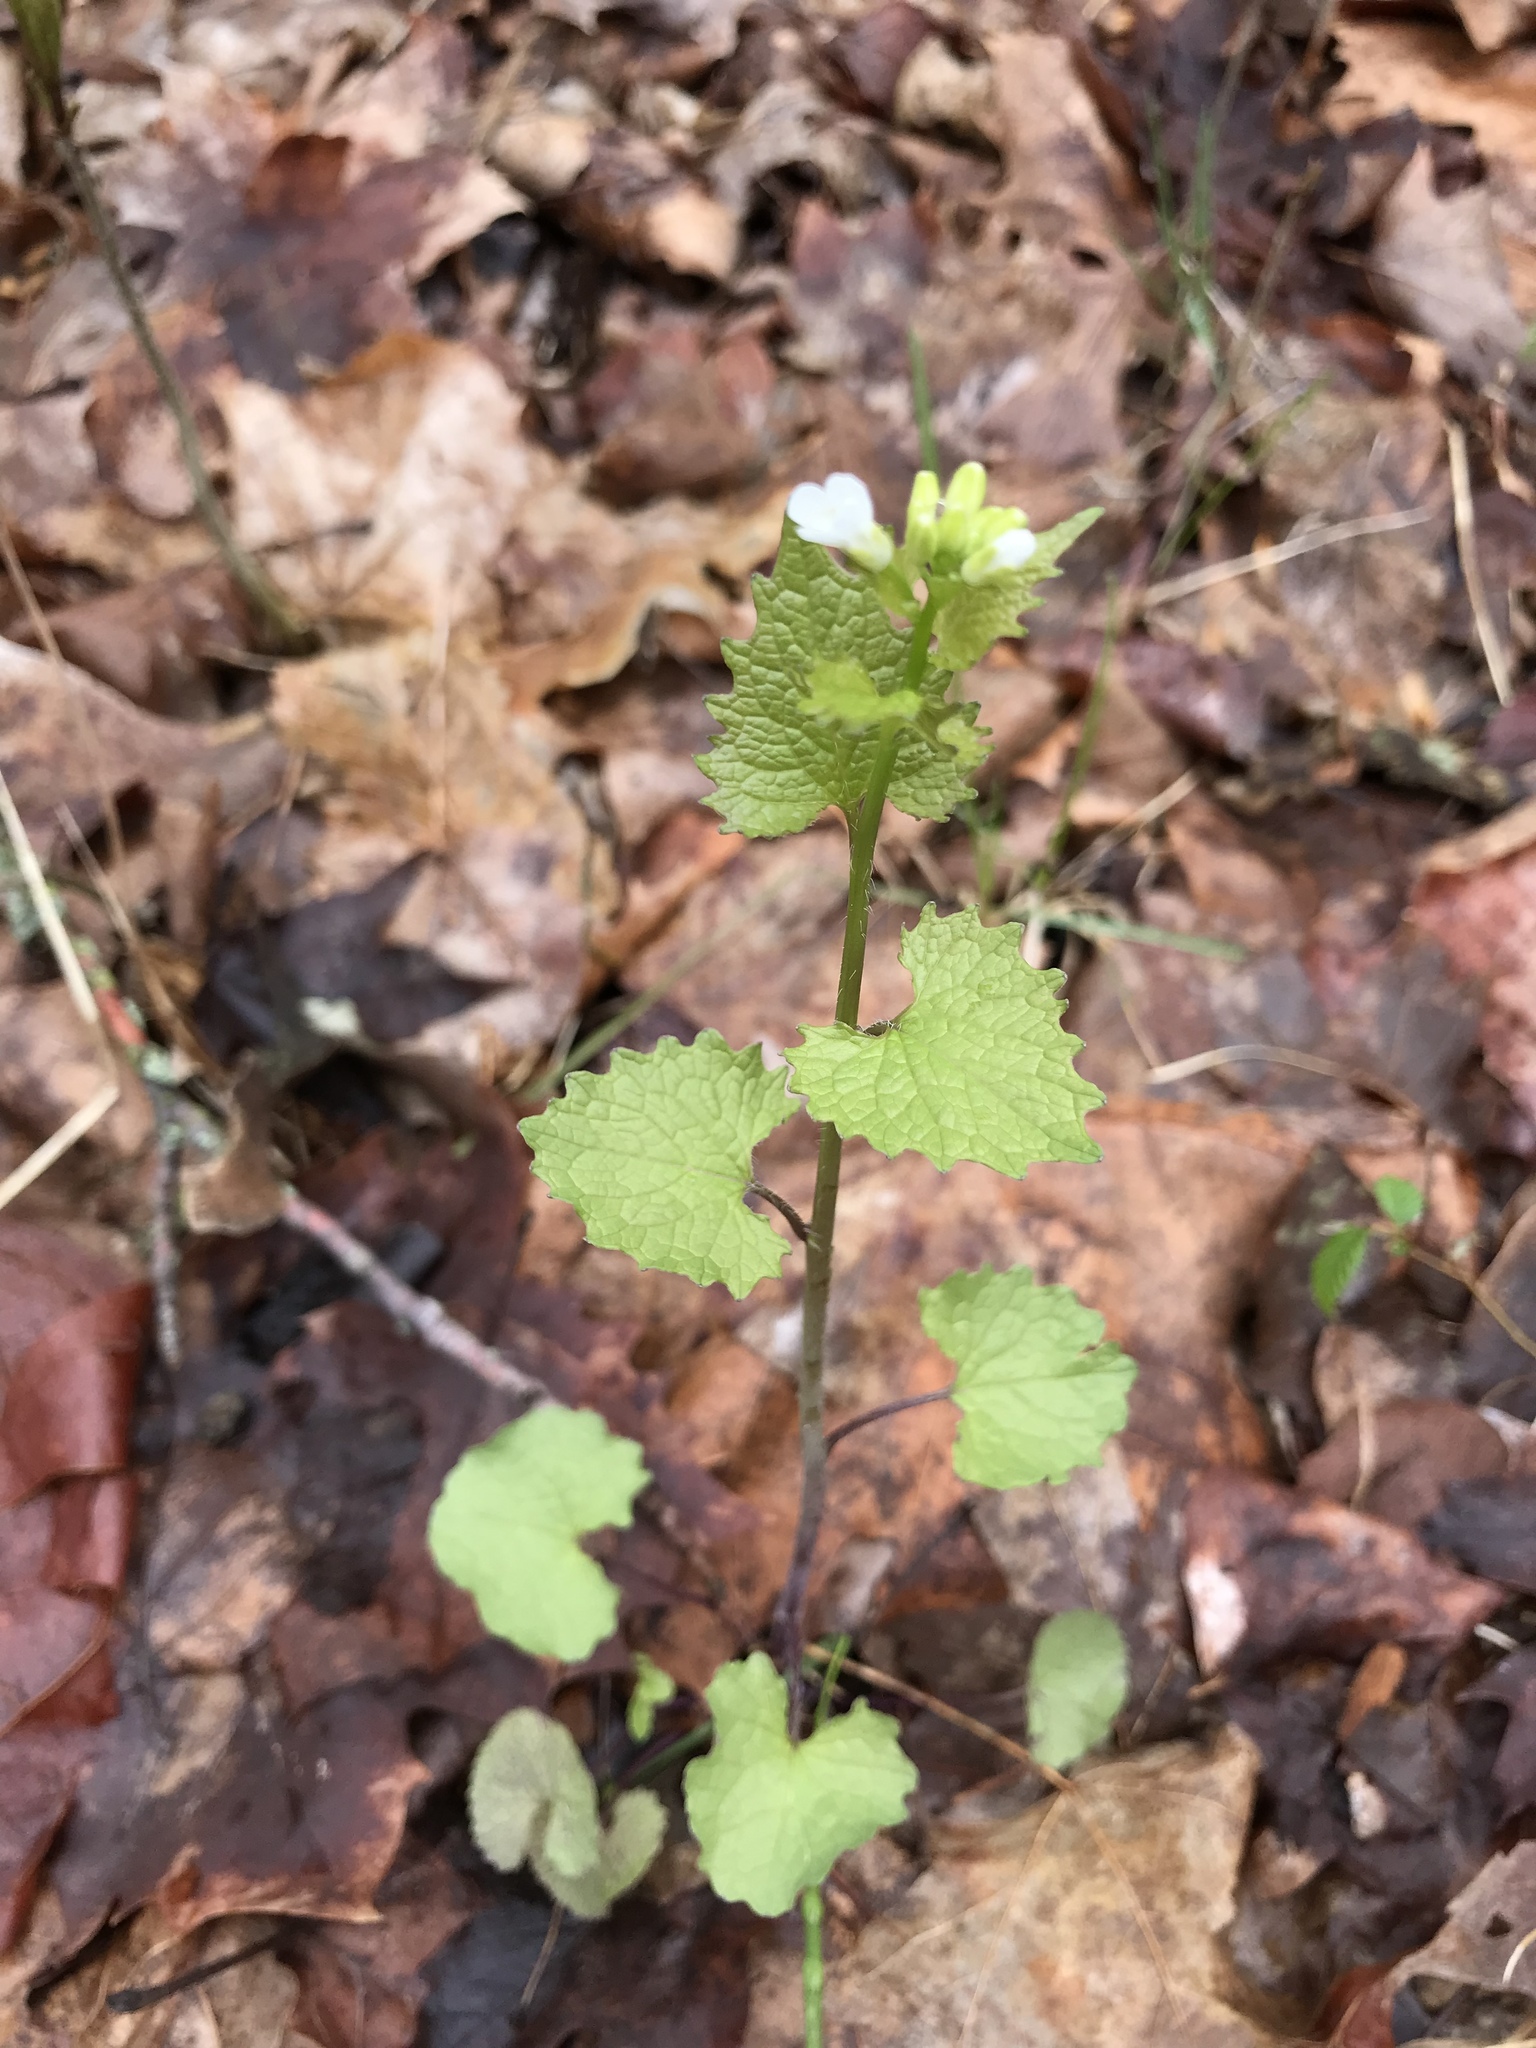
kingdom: Plantae
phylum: Tracheophyta
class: Magnoliopsida
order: Brassicales
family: Brassicaceae
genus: Alliaria
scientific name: Alliaria petiolata
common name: Garlic mustard
